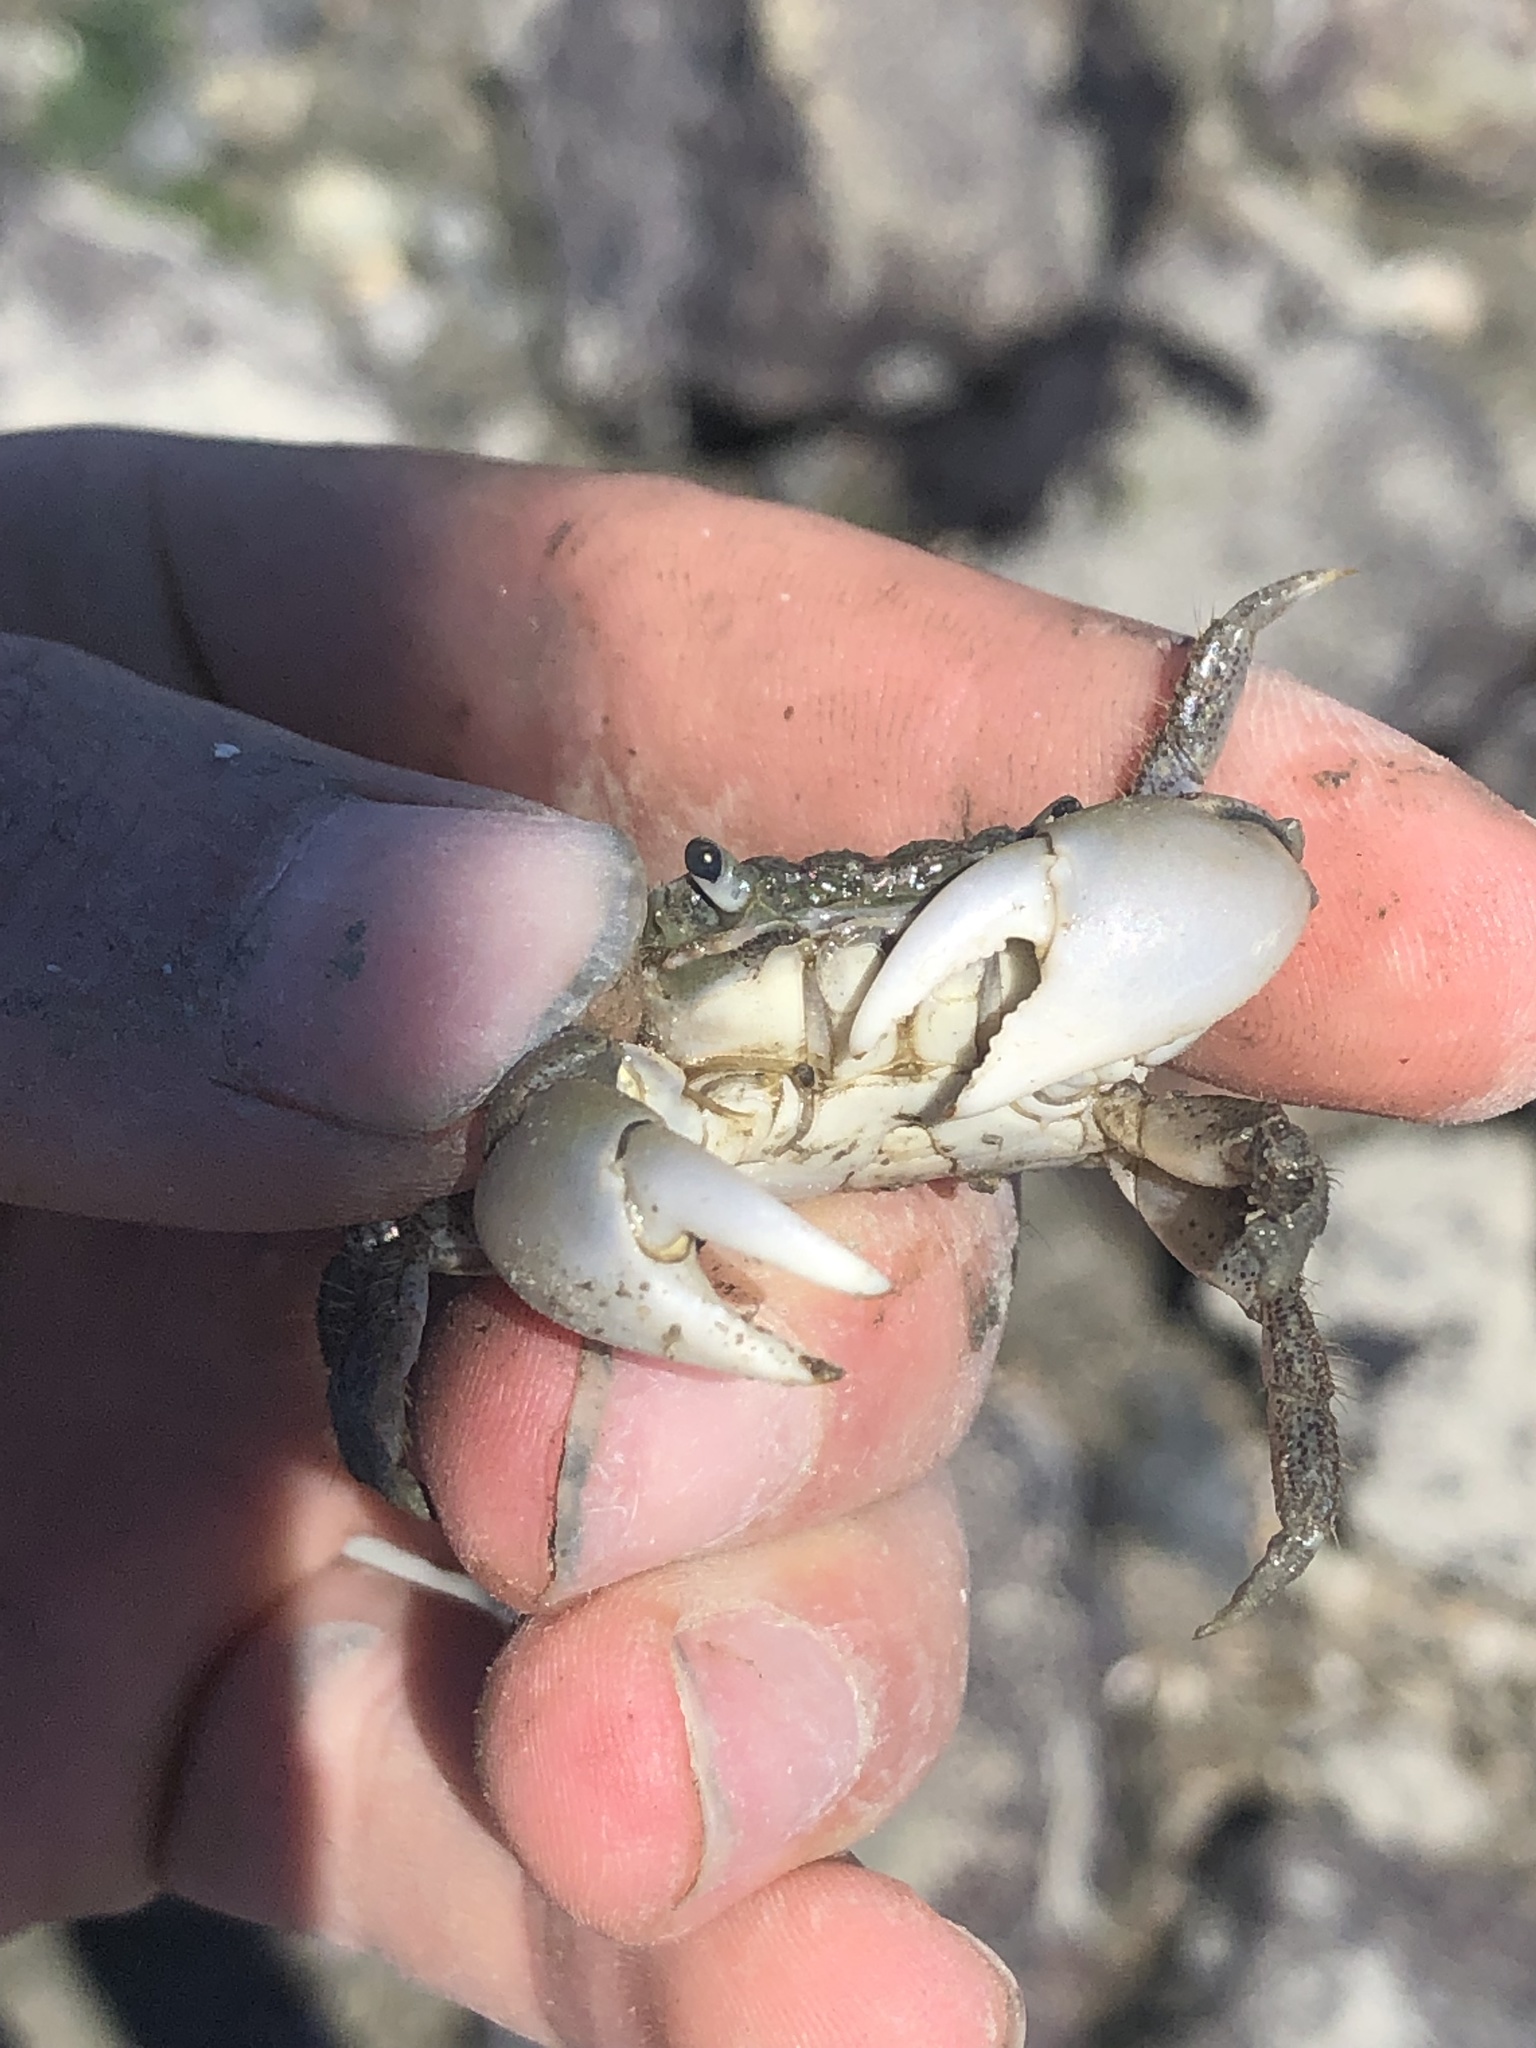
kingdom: Animalia
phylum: Arthropoda
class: Malacostraca
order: Decapoda
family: Varunidae
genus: Hemigrapsus
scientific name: Hemigrapsus oregonensis
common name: Yellow shore crab
